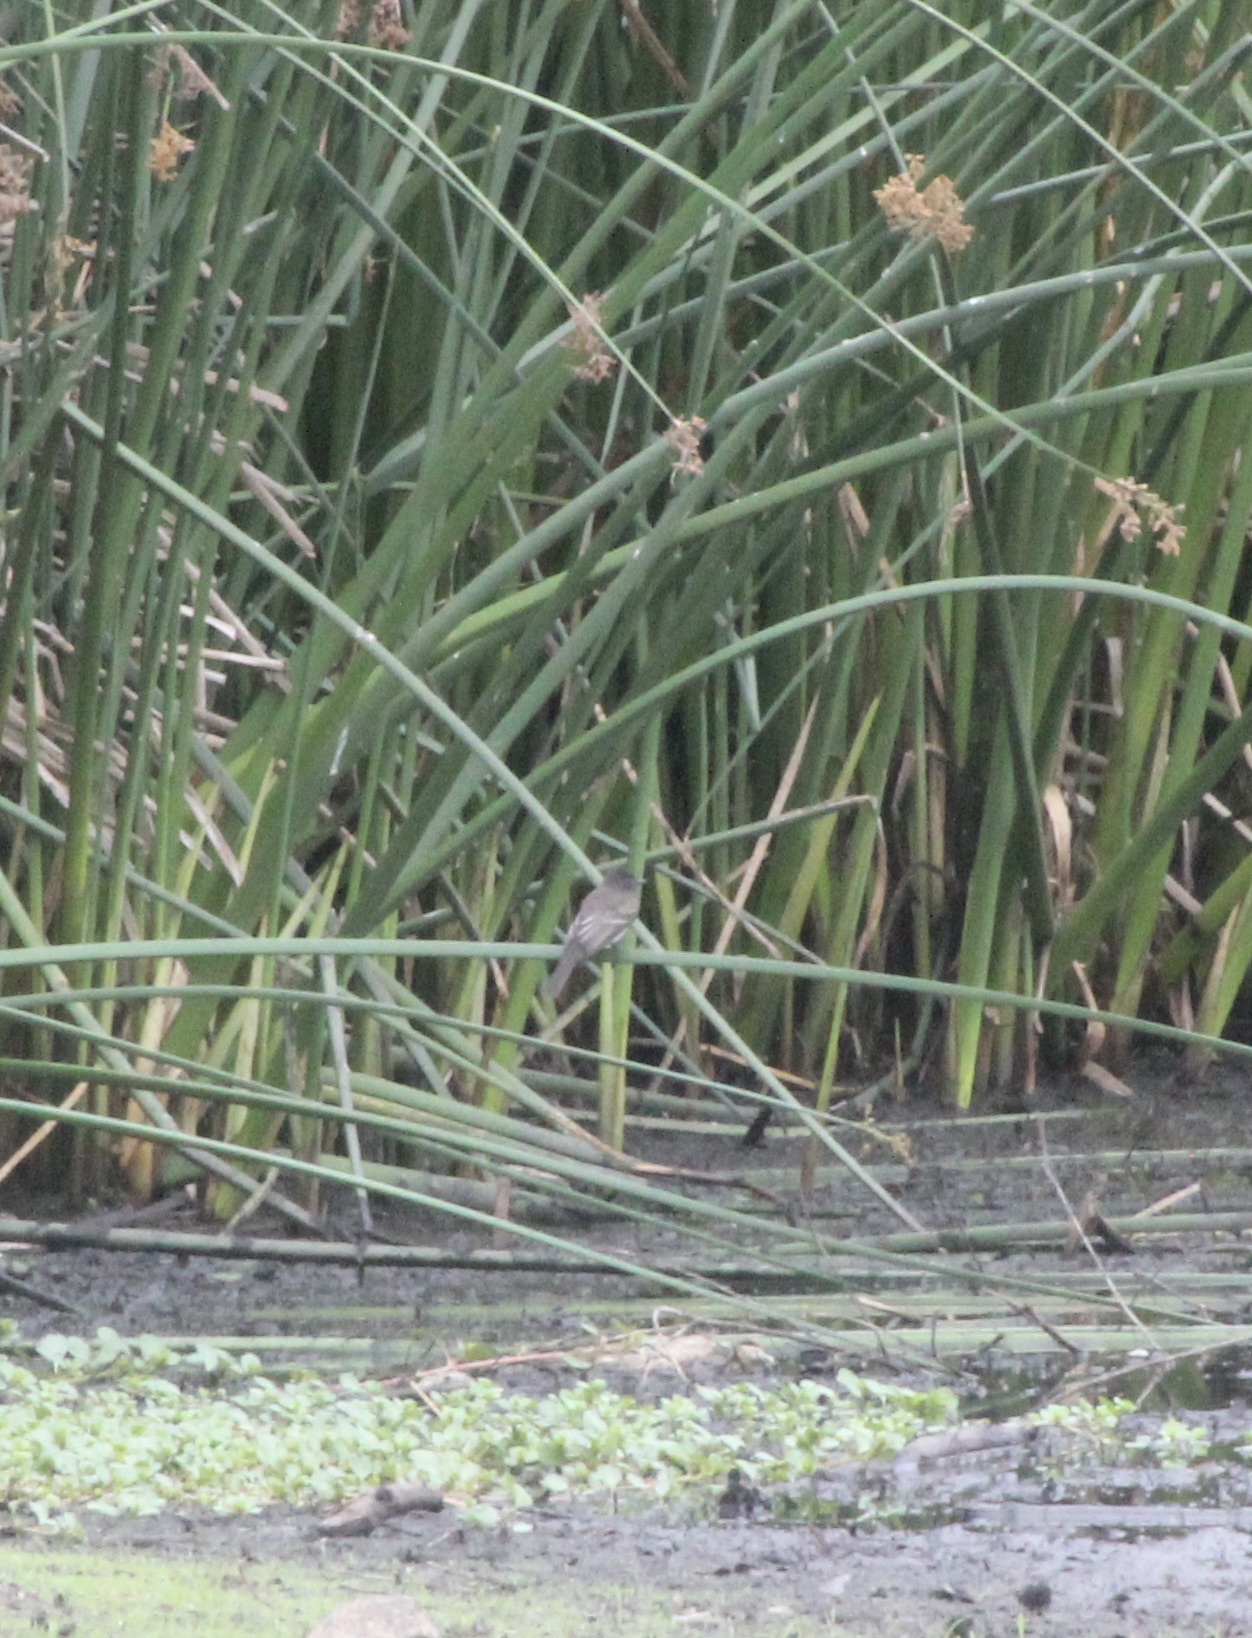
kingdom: Animalia
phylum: Chordata
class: Aves
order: Passeriformes
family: Tyrannidae
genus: Sayornis
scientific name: Sayornis nigricans
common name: Black phoebe
